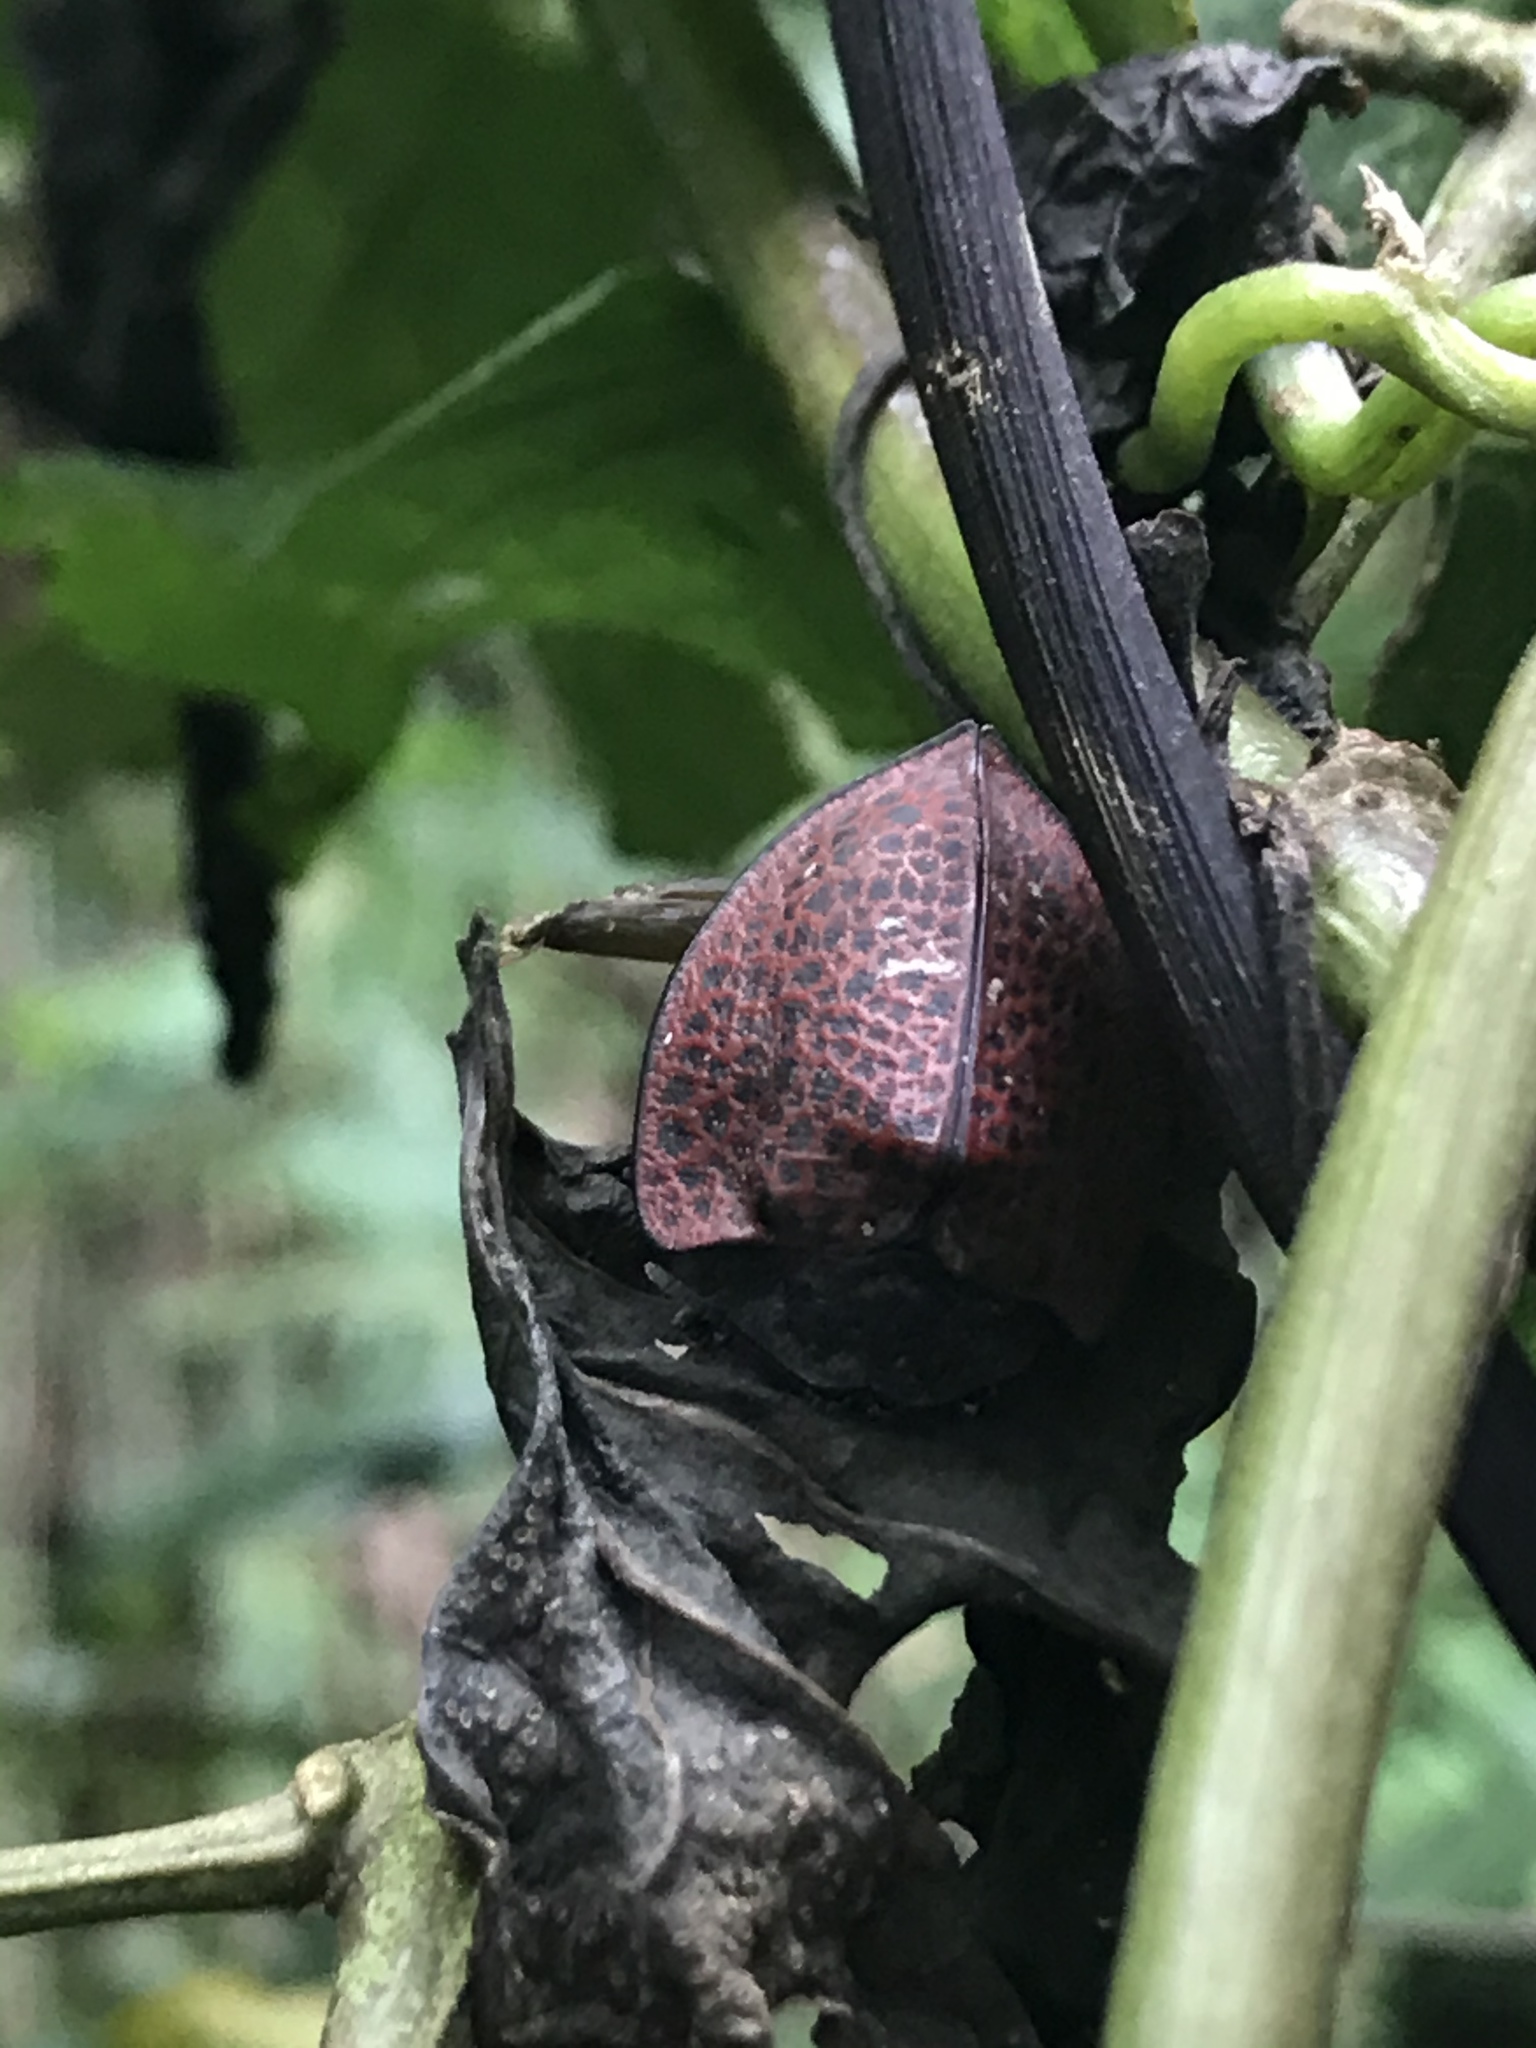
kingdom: Animalia
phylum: Arthropoda
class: Insecta
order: Coleoptera
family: Chrysomelidae
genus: Cyrtonota
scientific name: Cyrtonota textilis
